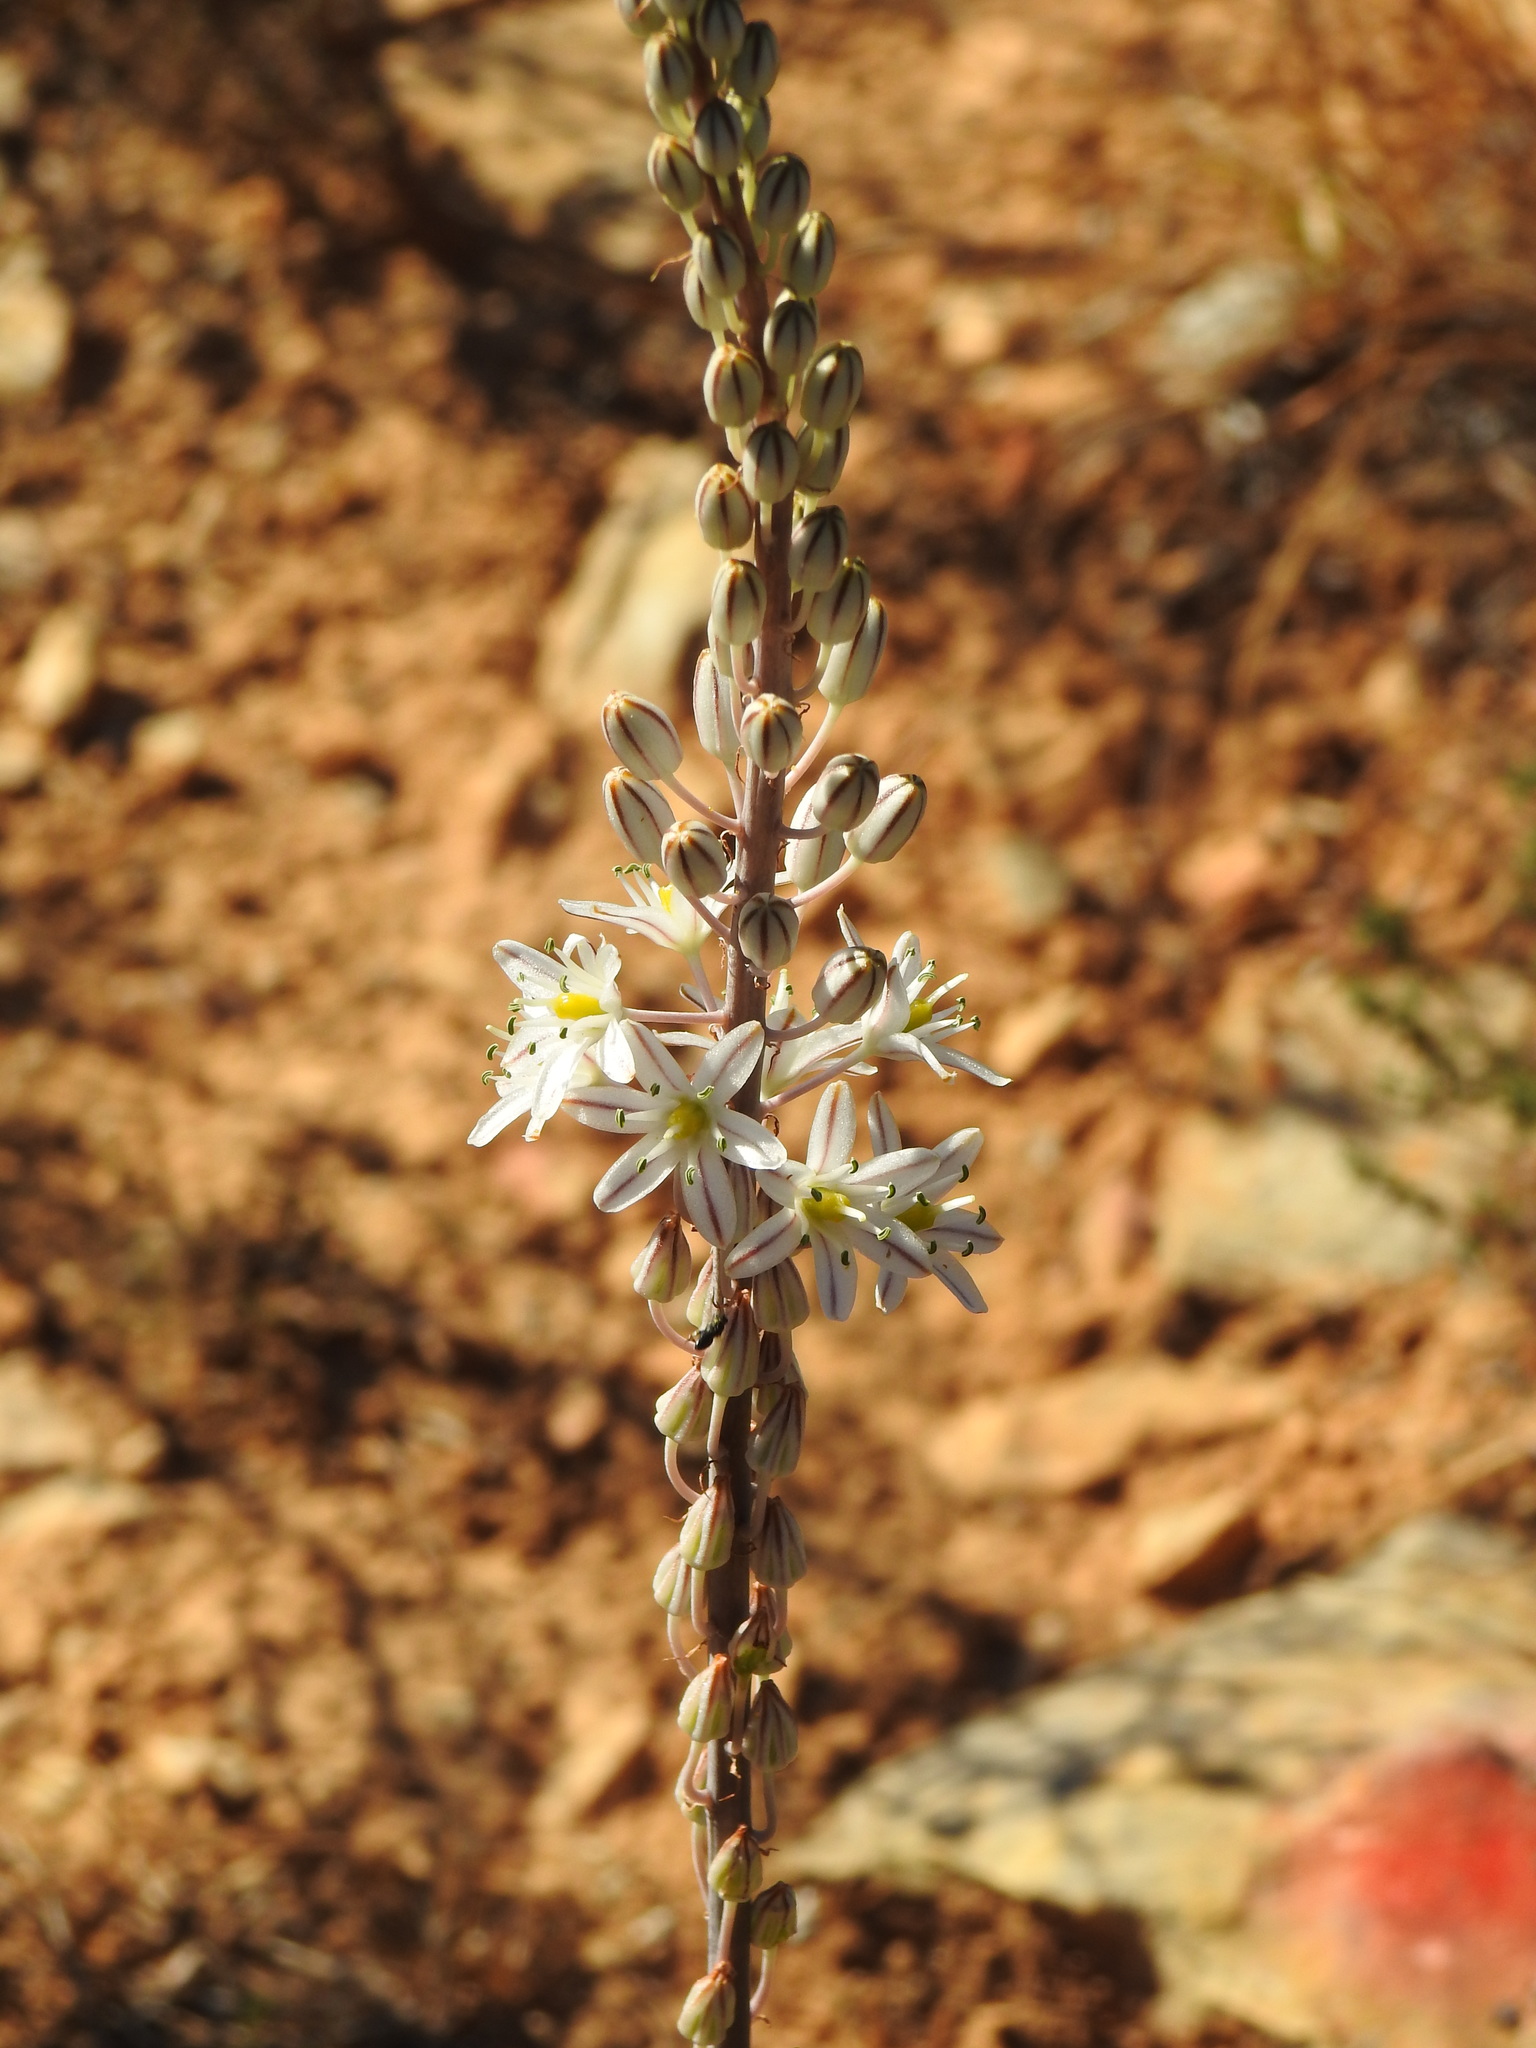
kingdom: Plantae
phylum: Tracheophyta
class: Liliopsida
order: Asparagales
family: Asparagaceae
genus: Drimia
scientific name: Drimia maritima
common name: Maritime squill
